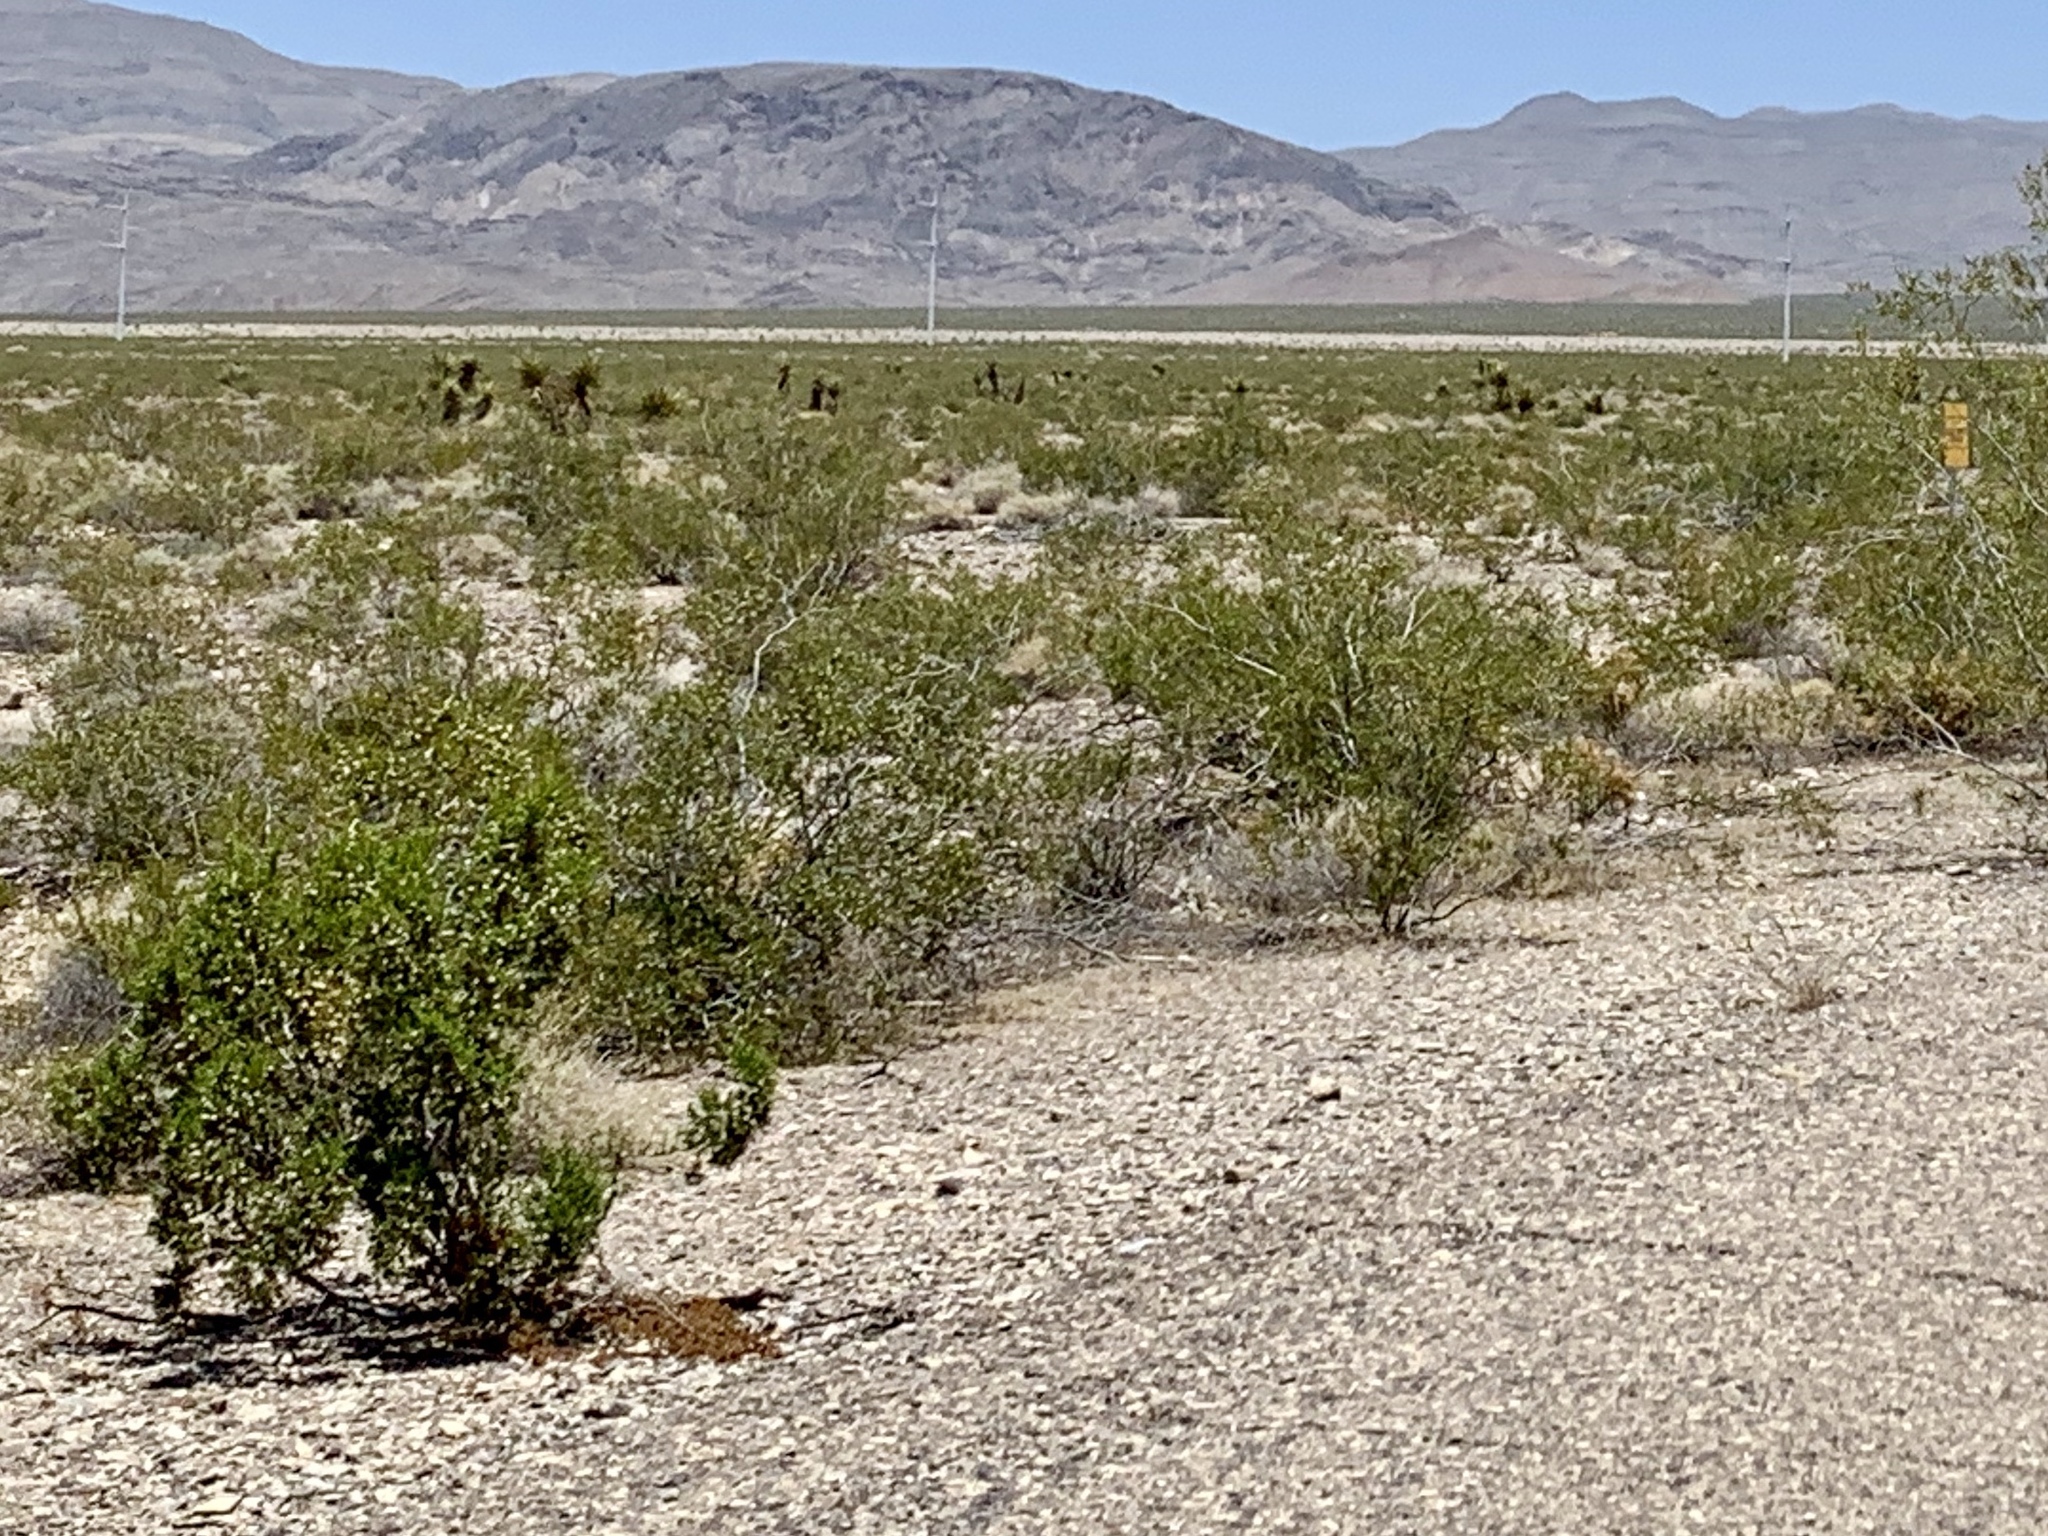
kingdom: Plantae
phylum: Tracheophyta
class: Magnoliopsida
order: Zygophyllales
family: Zygophyllaceae
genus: Larrea
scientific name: Larrea tridentata
